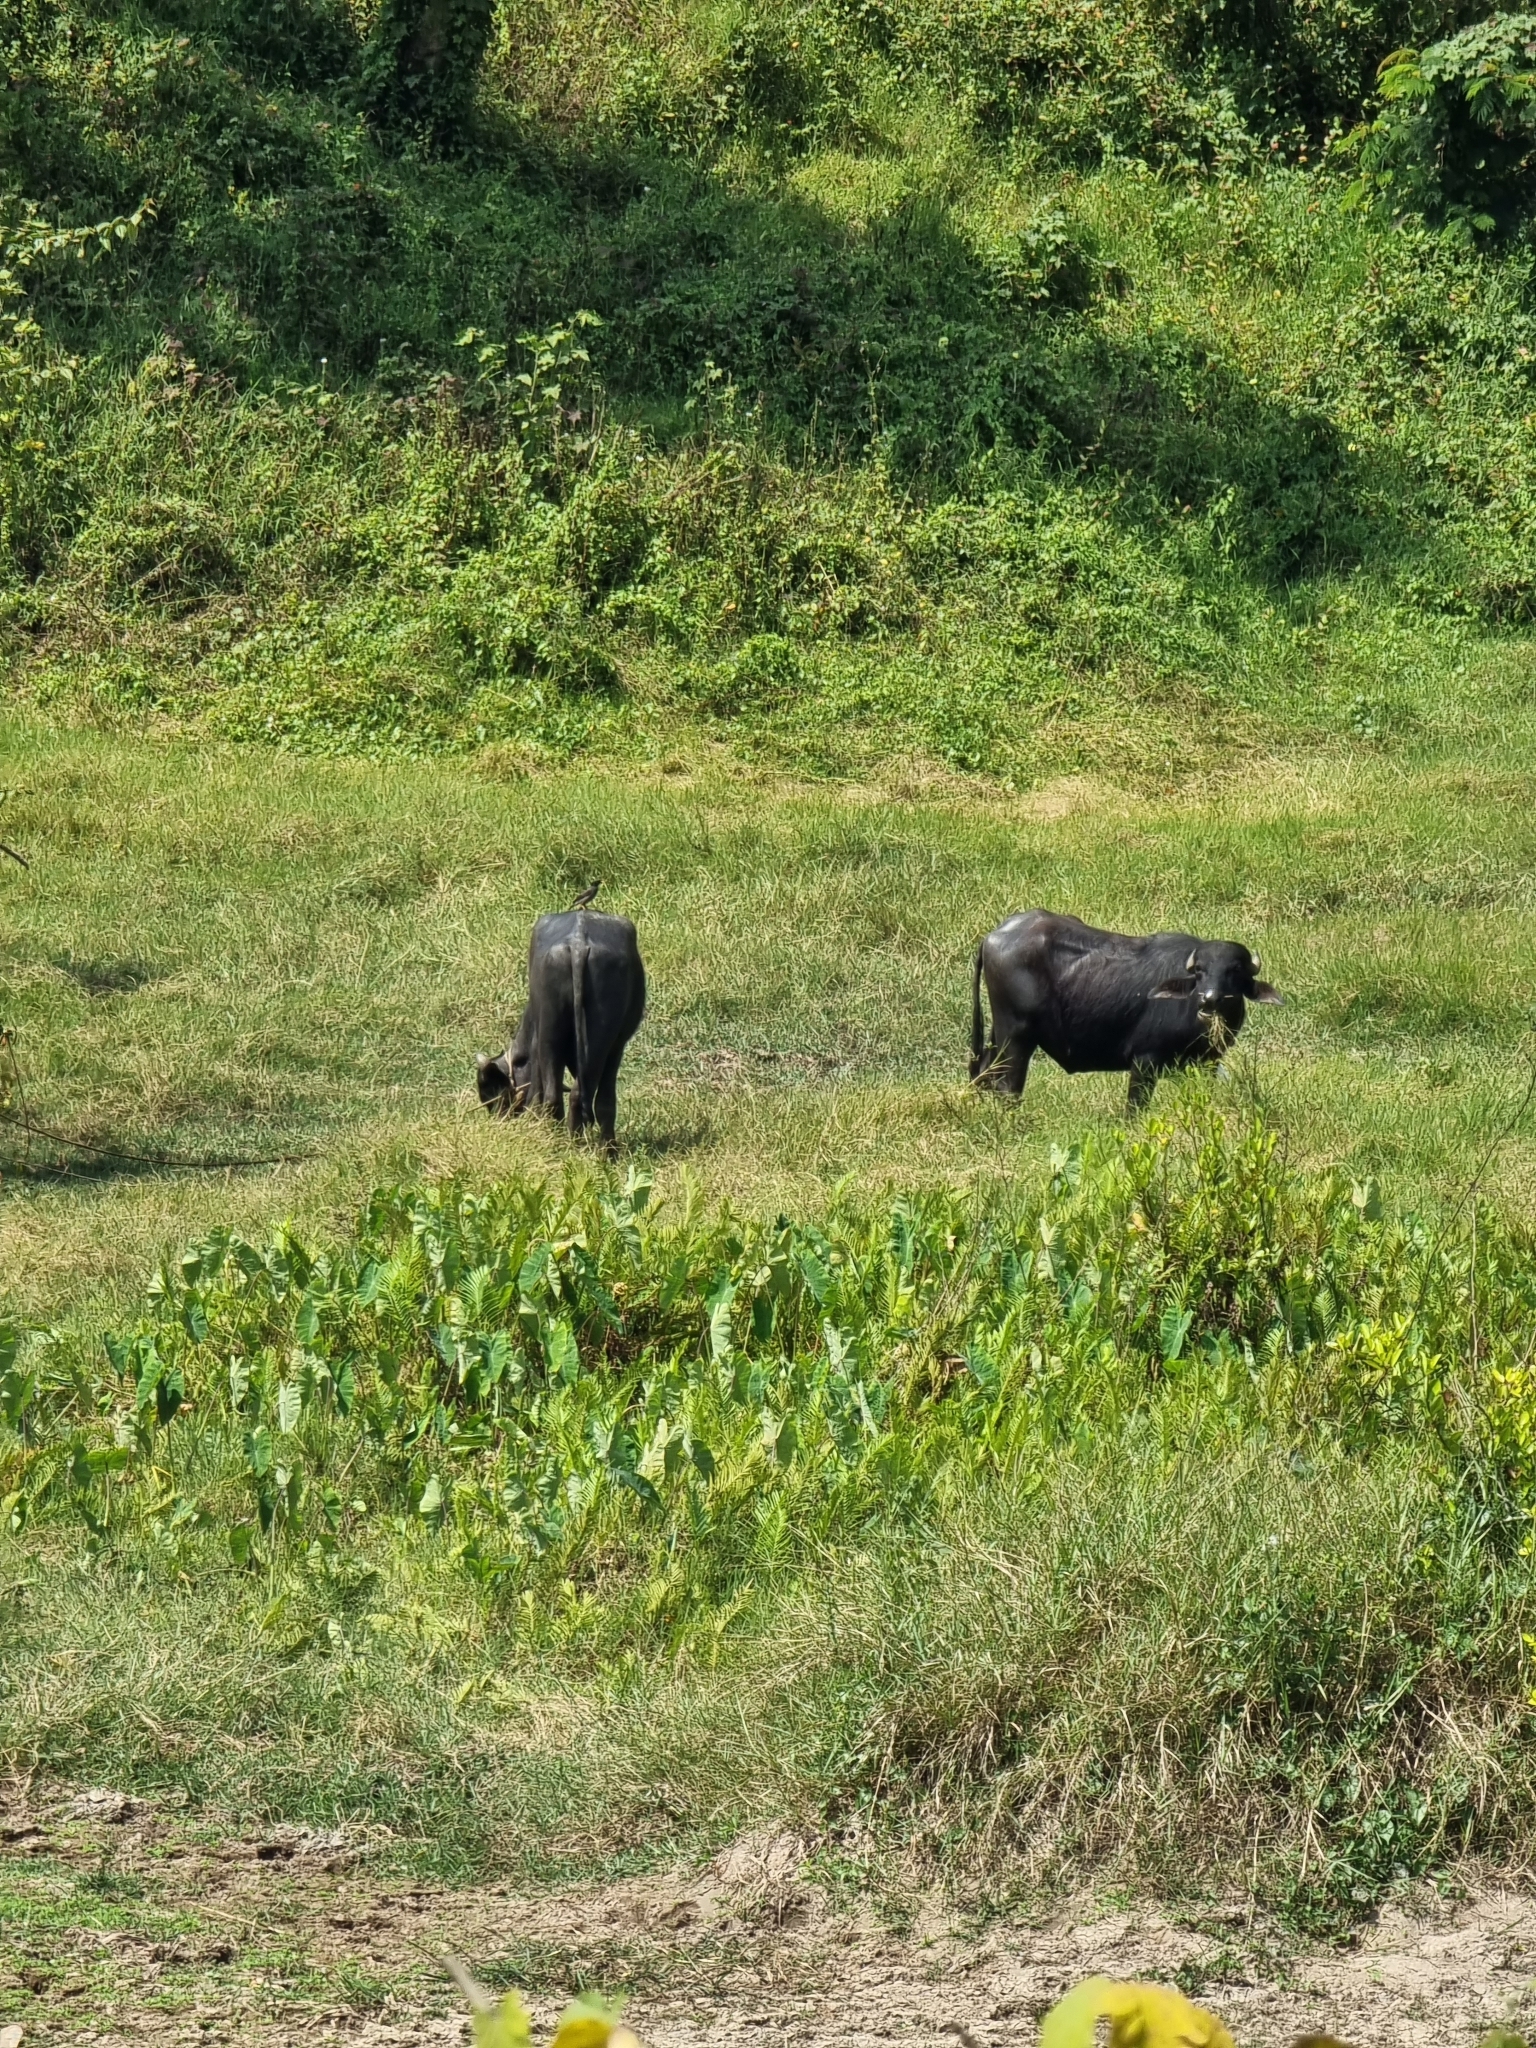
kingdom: Animalia
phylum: Chordata
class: Mammalia
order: Artiodactyla
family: Bovidae
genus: Bubalus
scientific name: Bubalus bubalis
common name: Water buffalo
